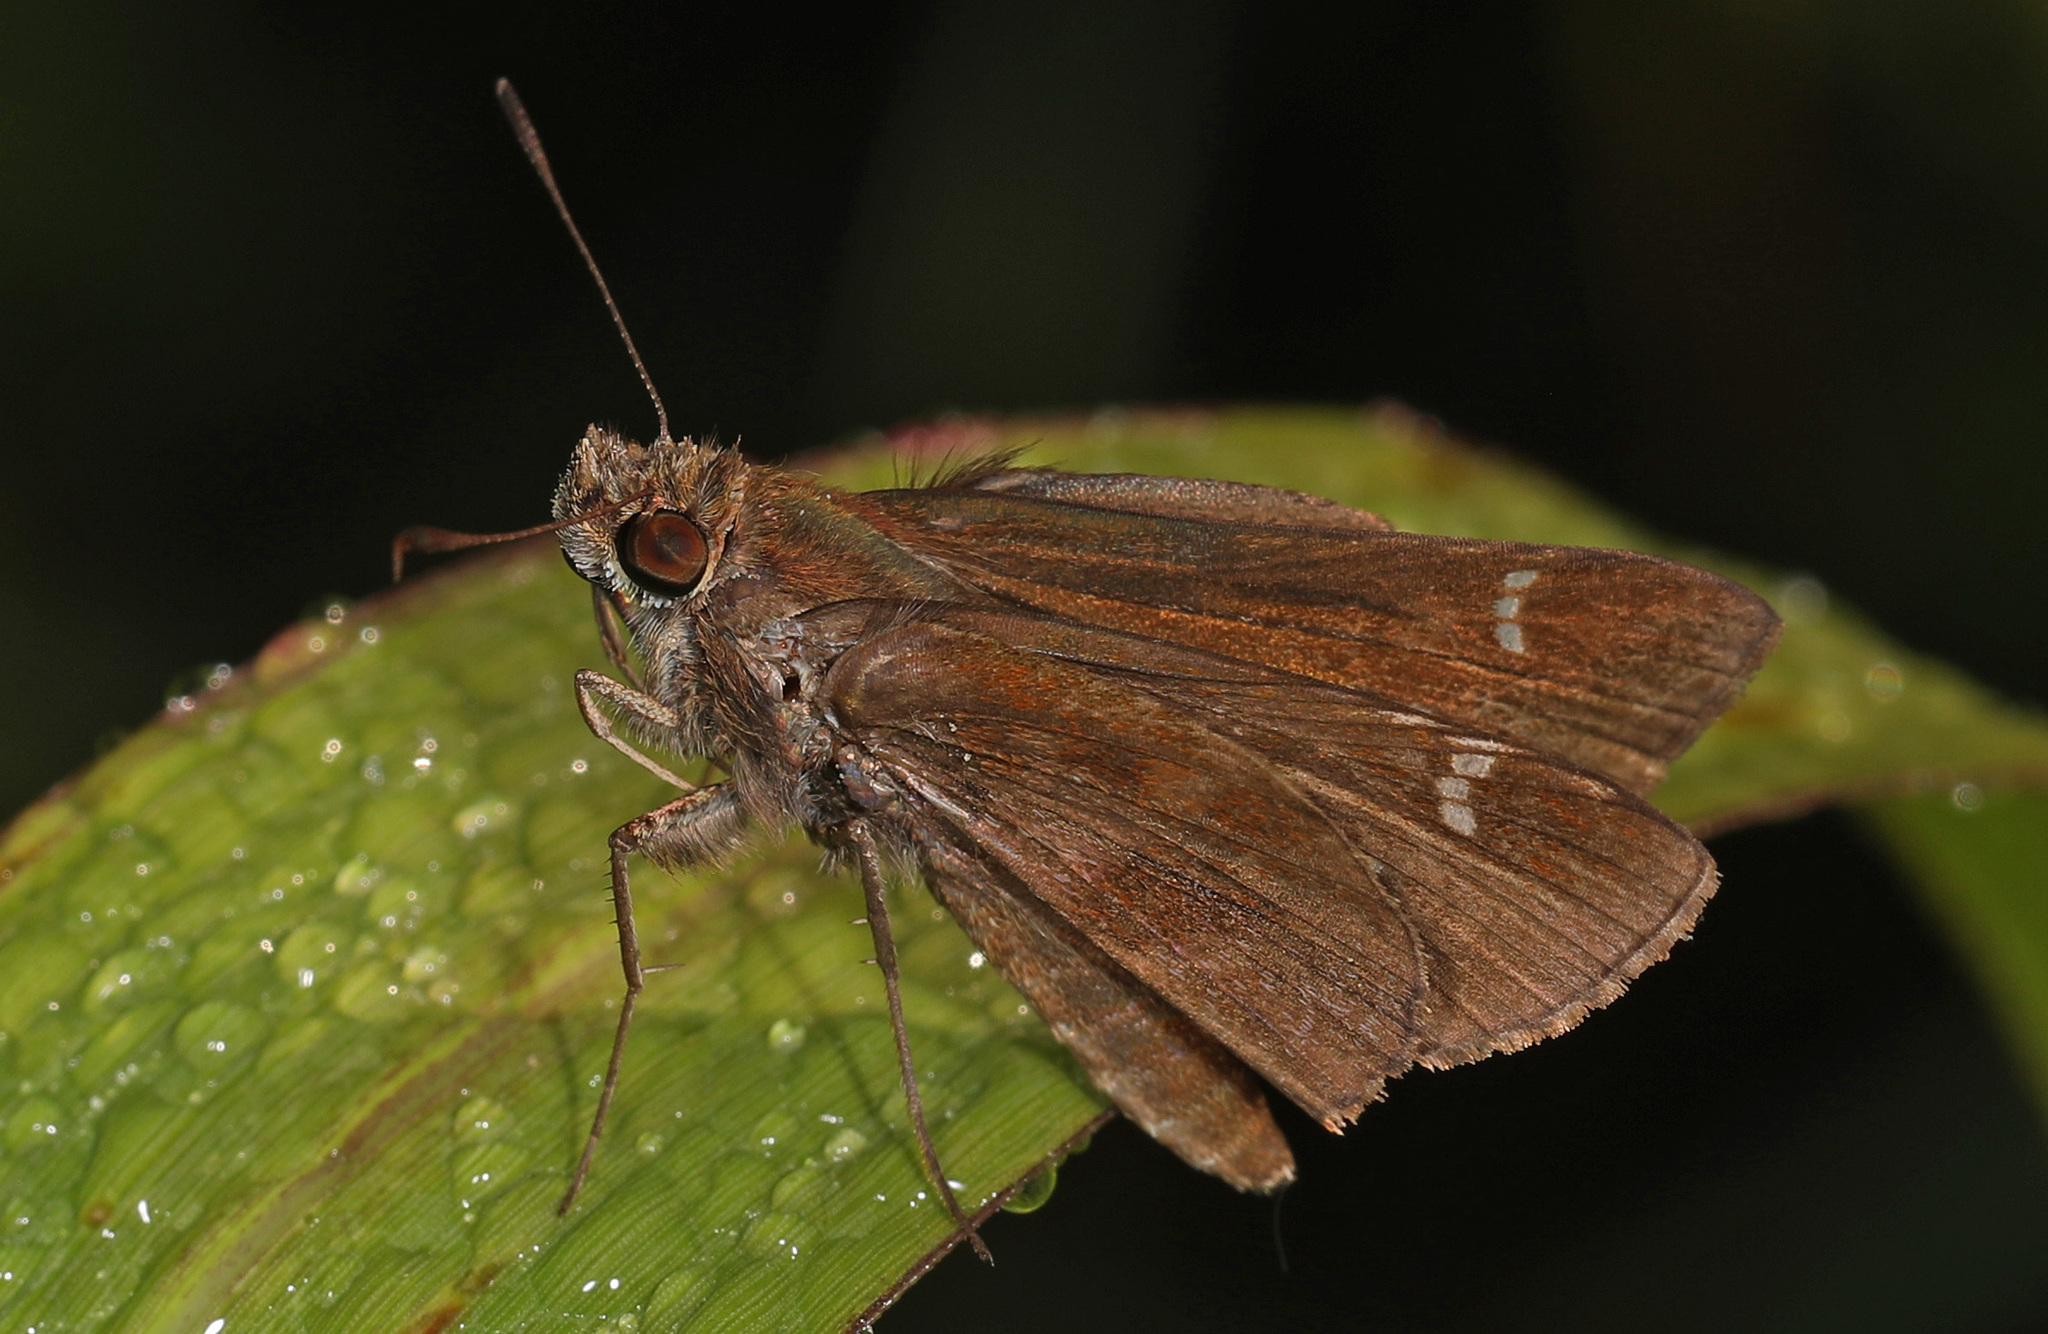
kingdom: Animalia
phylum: Arthropoda
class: Insecta
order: Lepidoptera
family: Hesperiidae
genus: Lerema
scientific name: Lerema accius
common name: Clouded skipper
